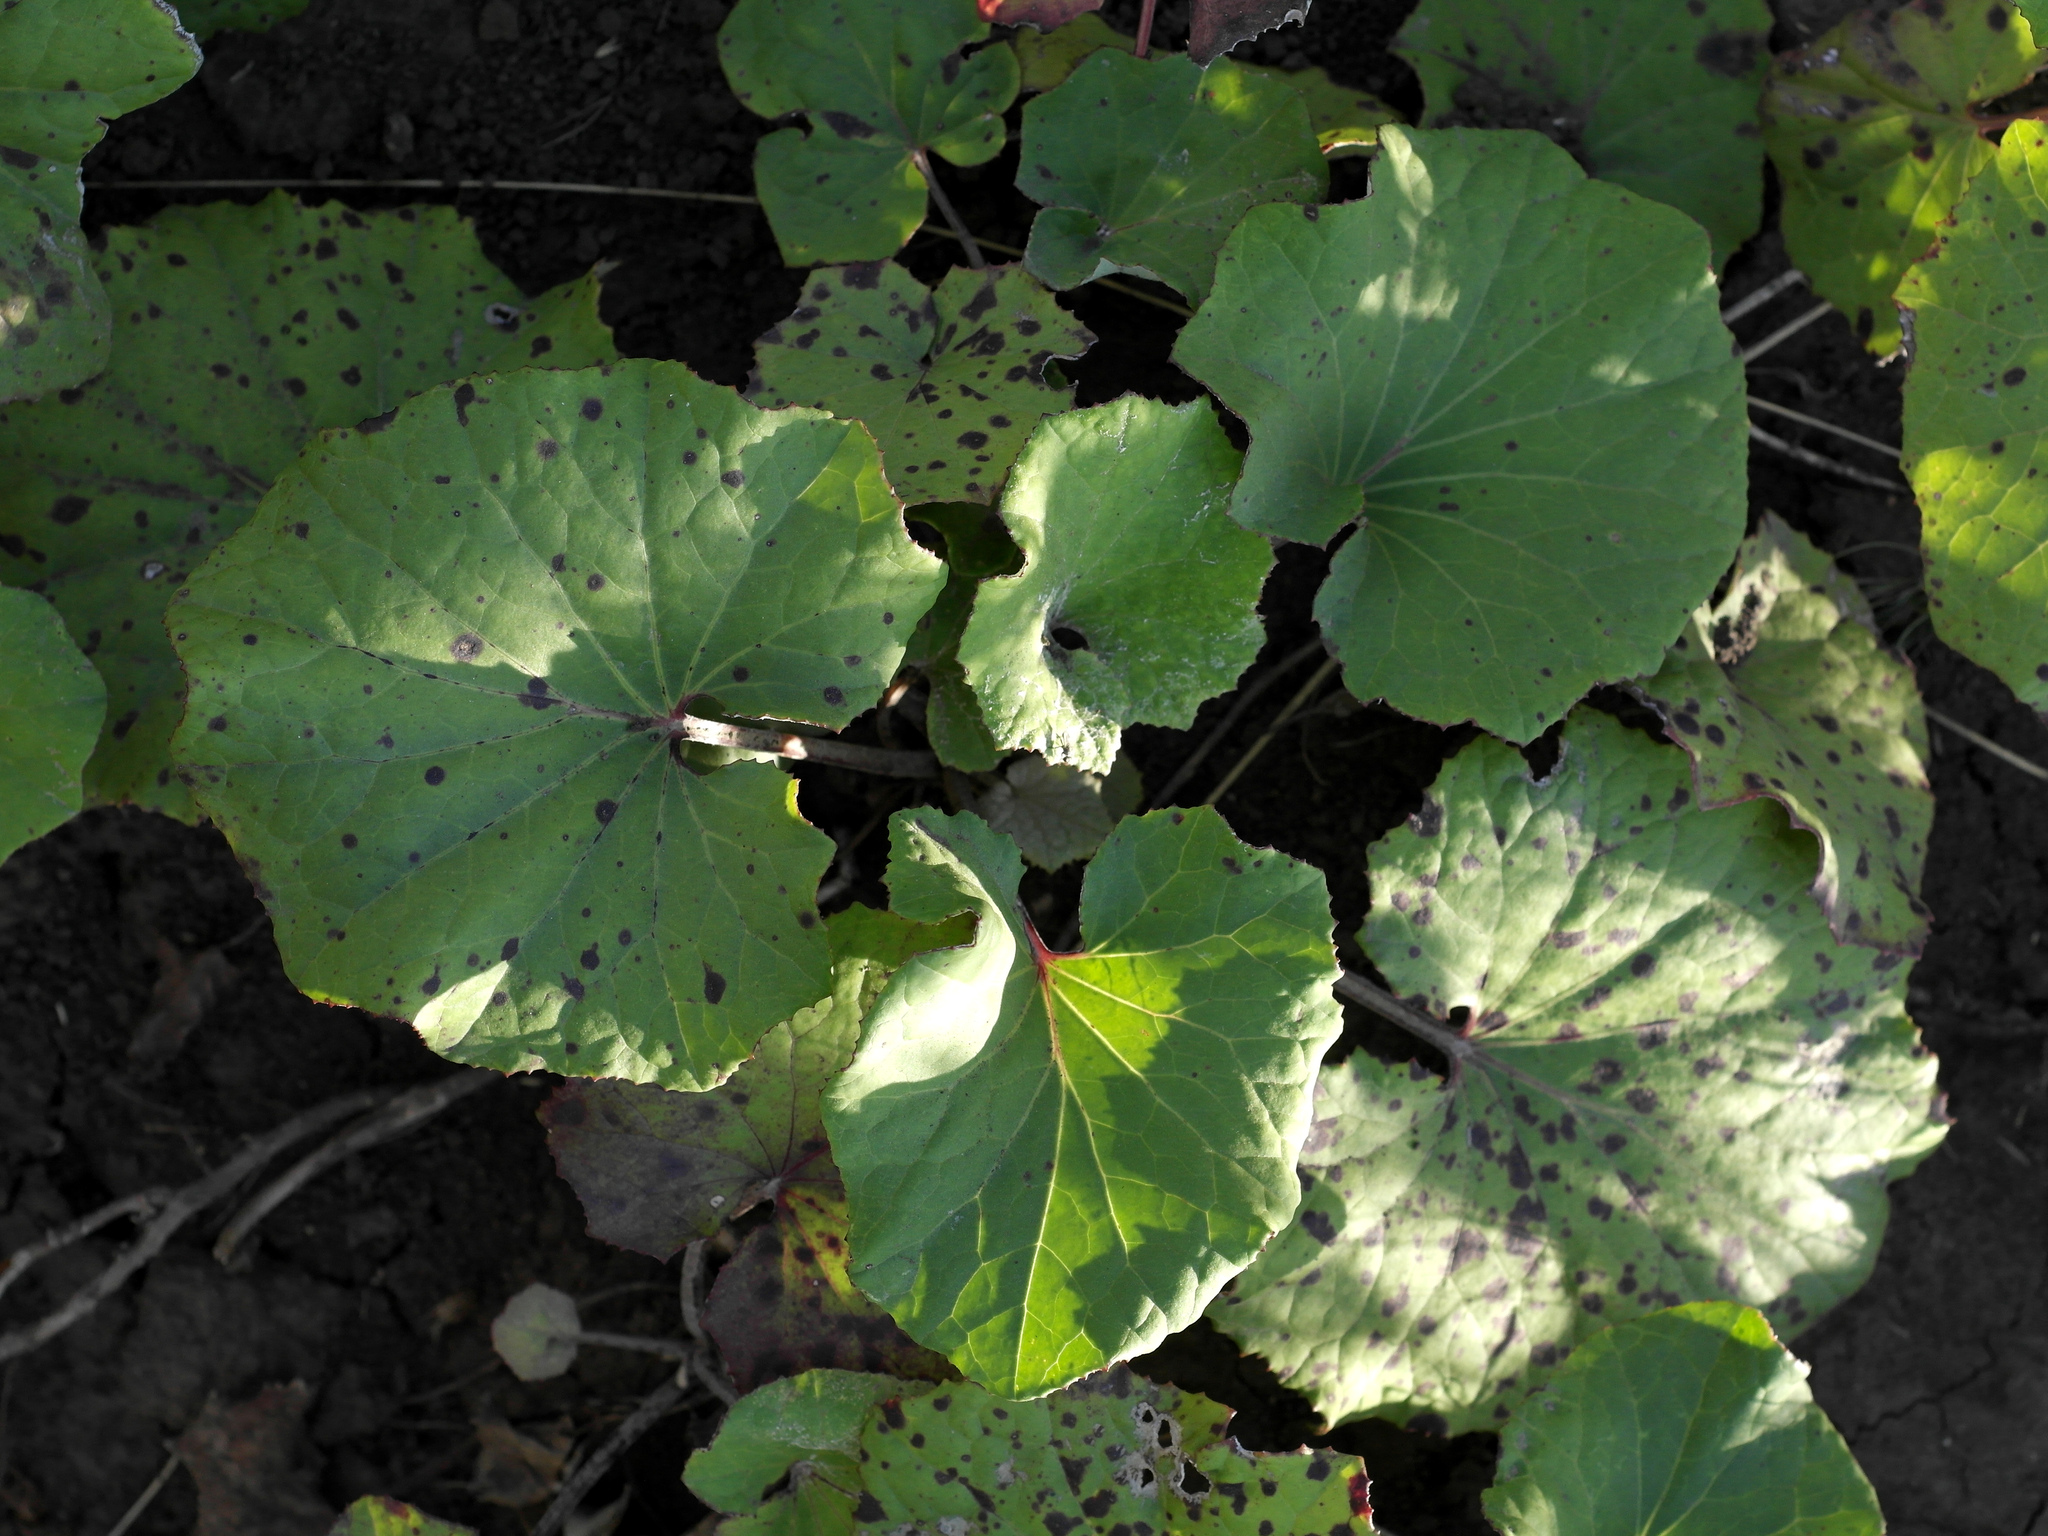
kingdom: Plantae
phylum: Tracheophyta
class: Magnoliopsida
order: Asterales
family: Asteraceae
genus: Tussilago
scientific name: Tussilago farfara
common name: Coltsfoot
